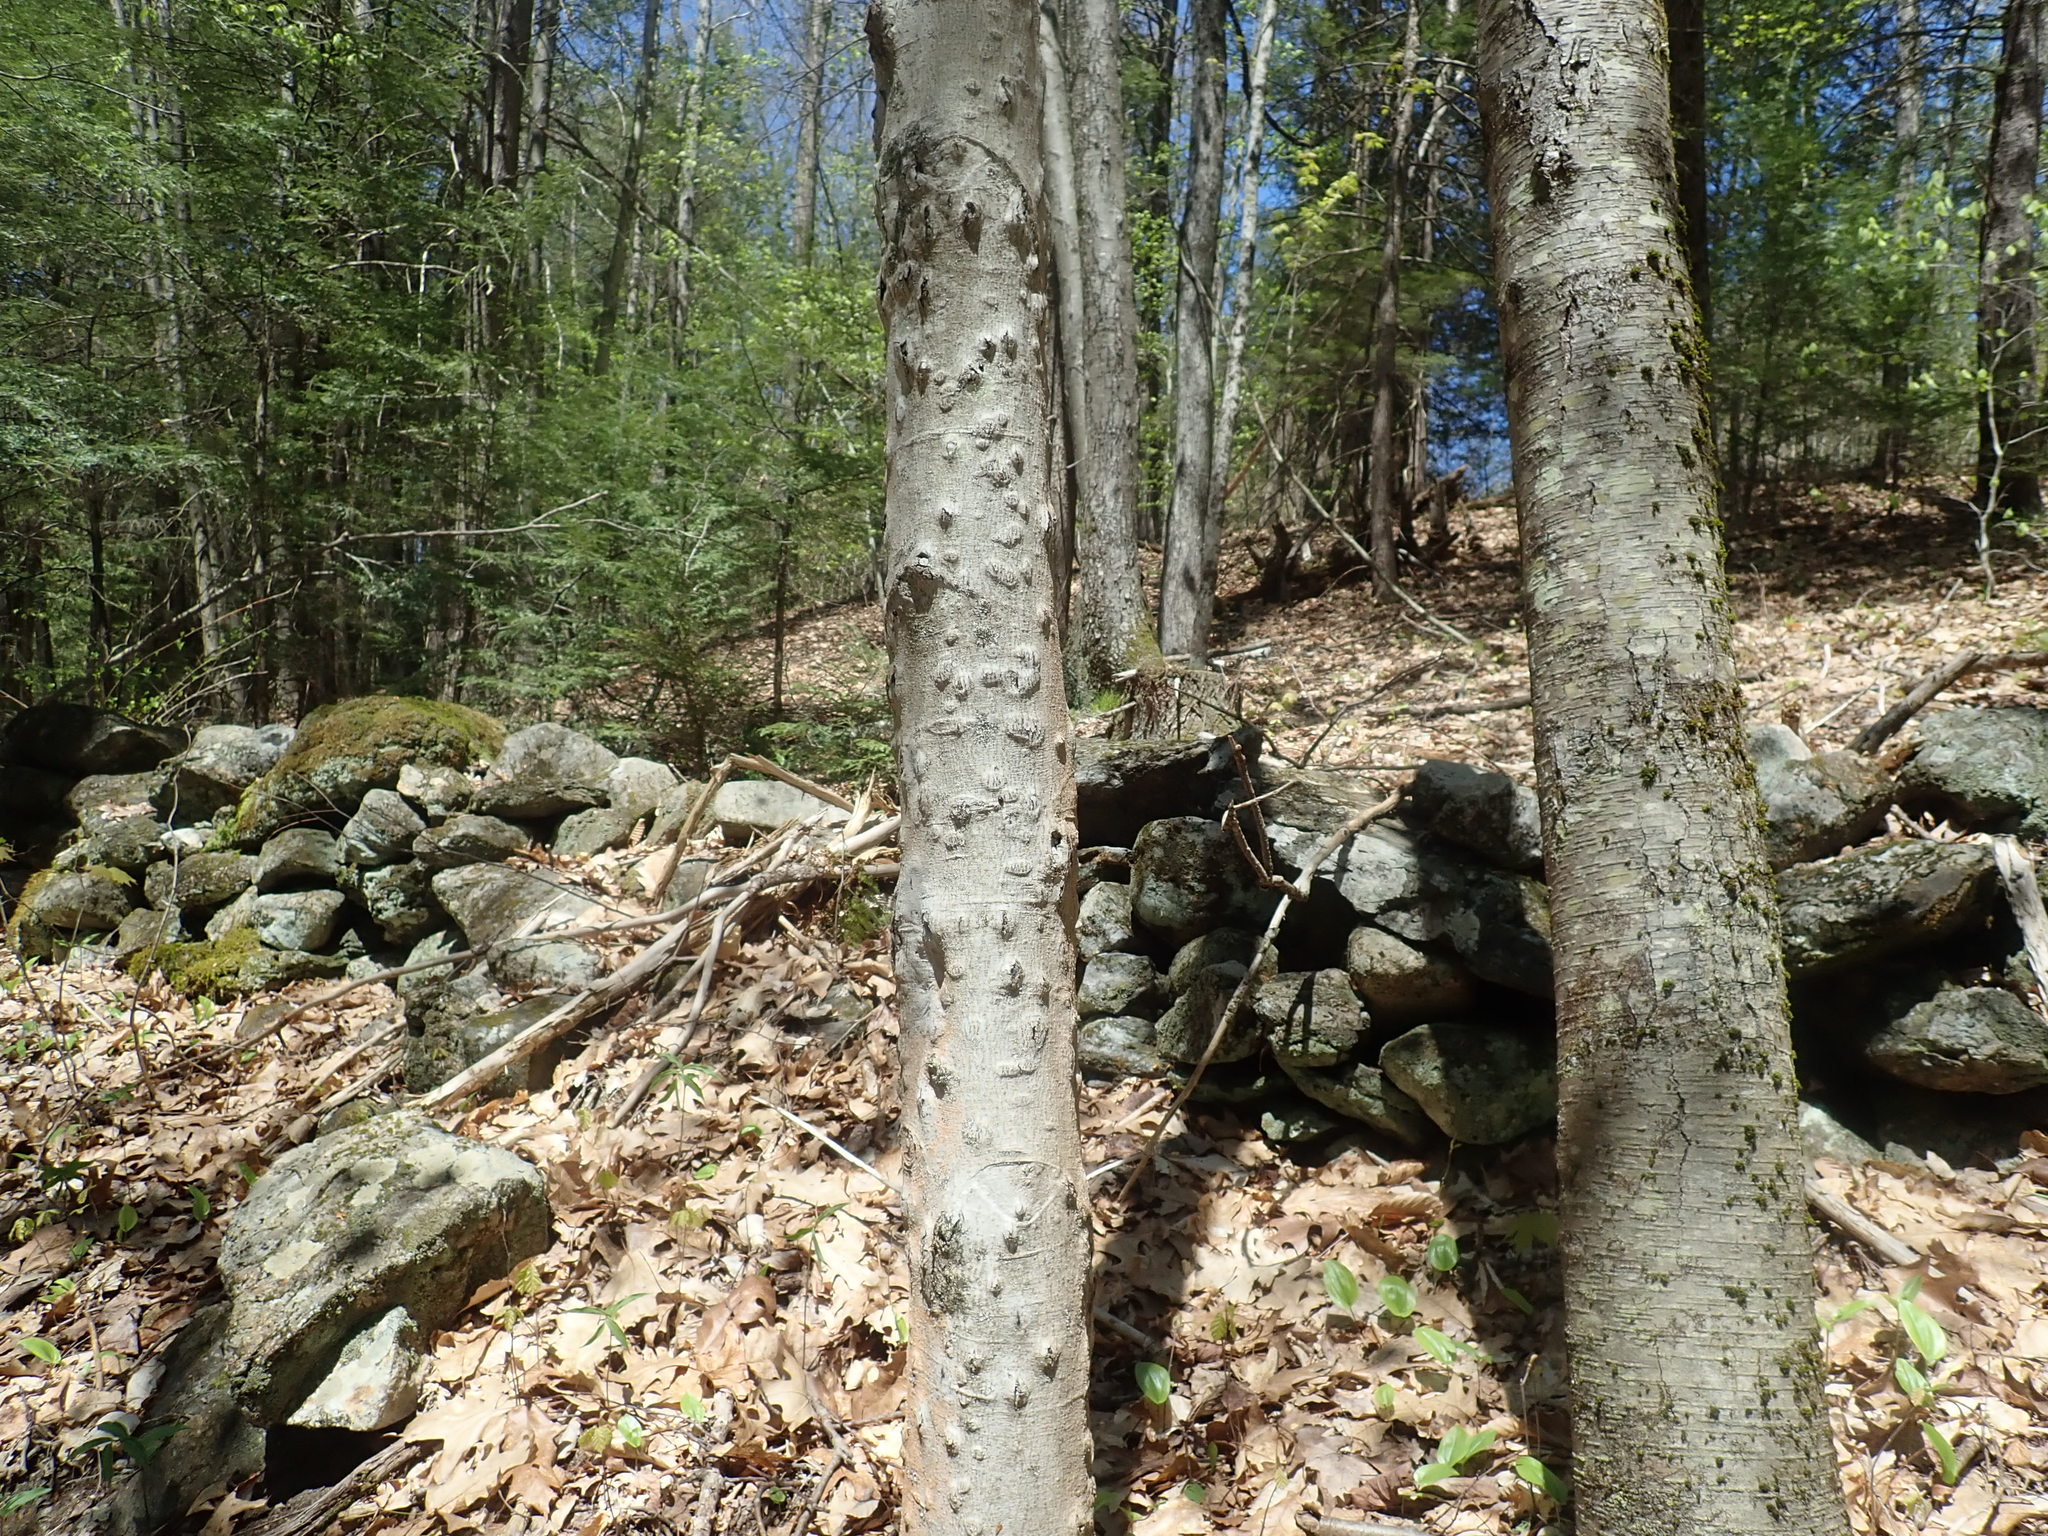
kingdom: Fungi
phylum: Ascomycota
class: Sordariomycetes
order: Hypocreales
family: Nectriaceae
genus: Neonectria
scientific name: Neonectria faginata
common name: Beech bark canker
